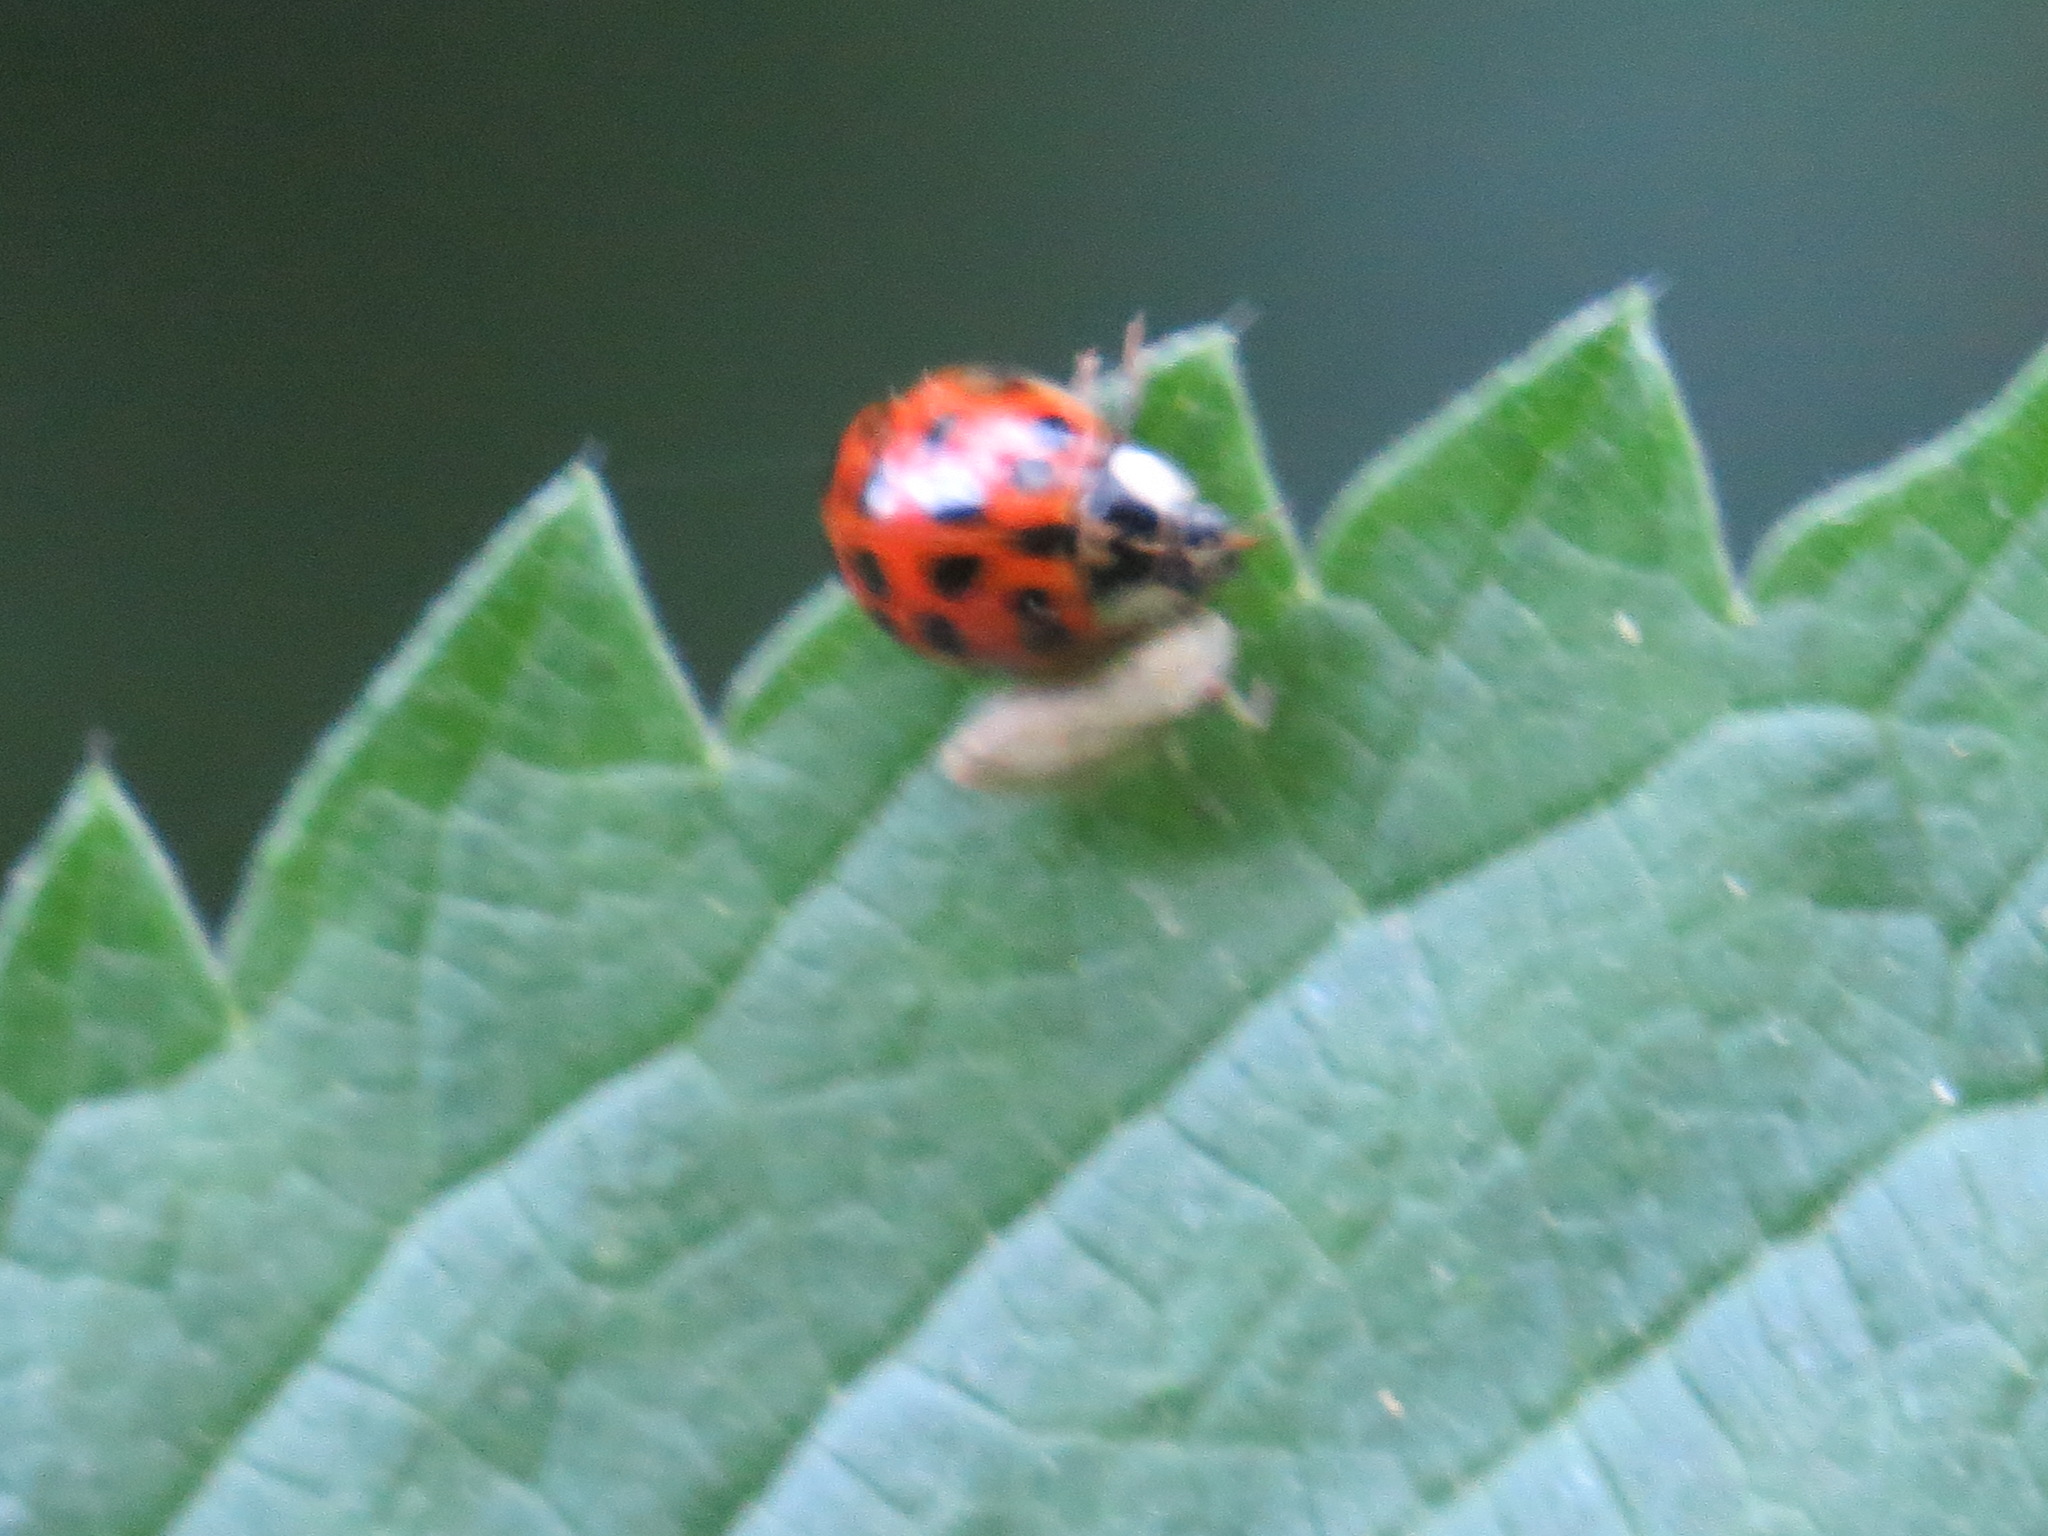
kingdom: Animalia
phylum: Arthropoda
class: Insecta
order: Coleoptera
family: Coccinellidae
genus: Harmonia
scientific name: Harmonia axyridis
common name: Harlequin ladybird
